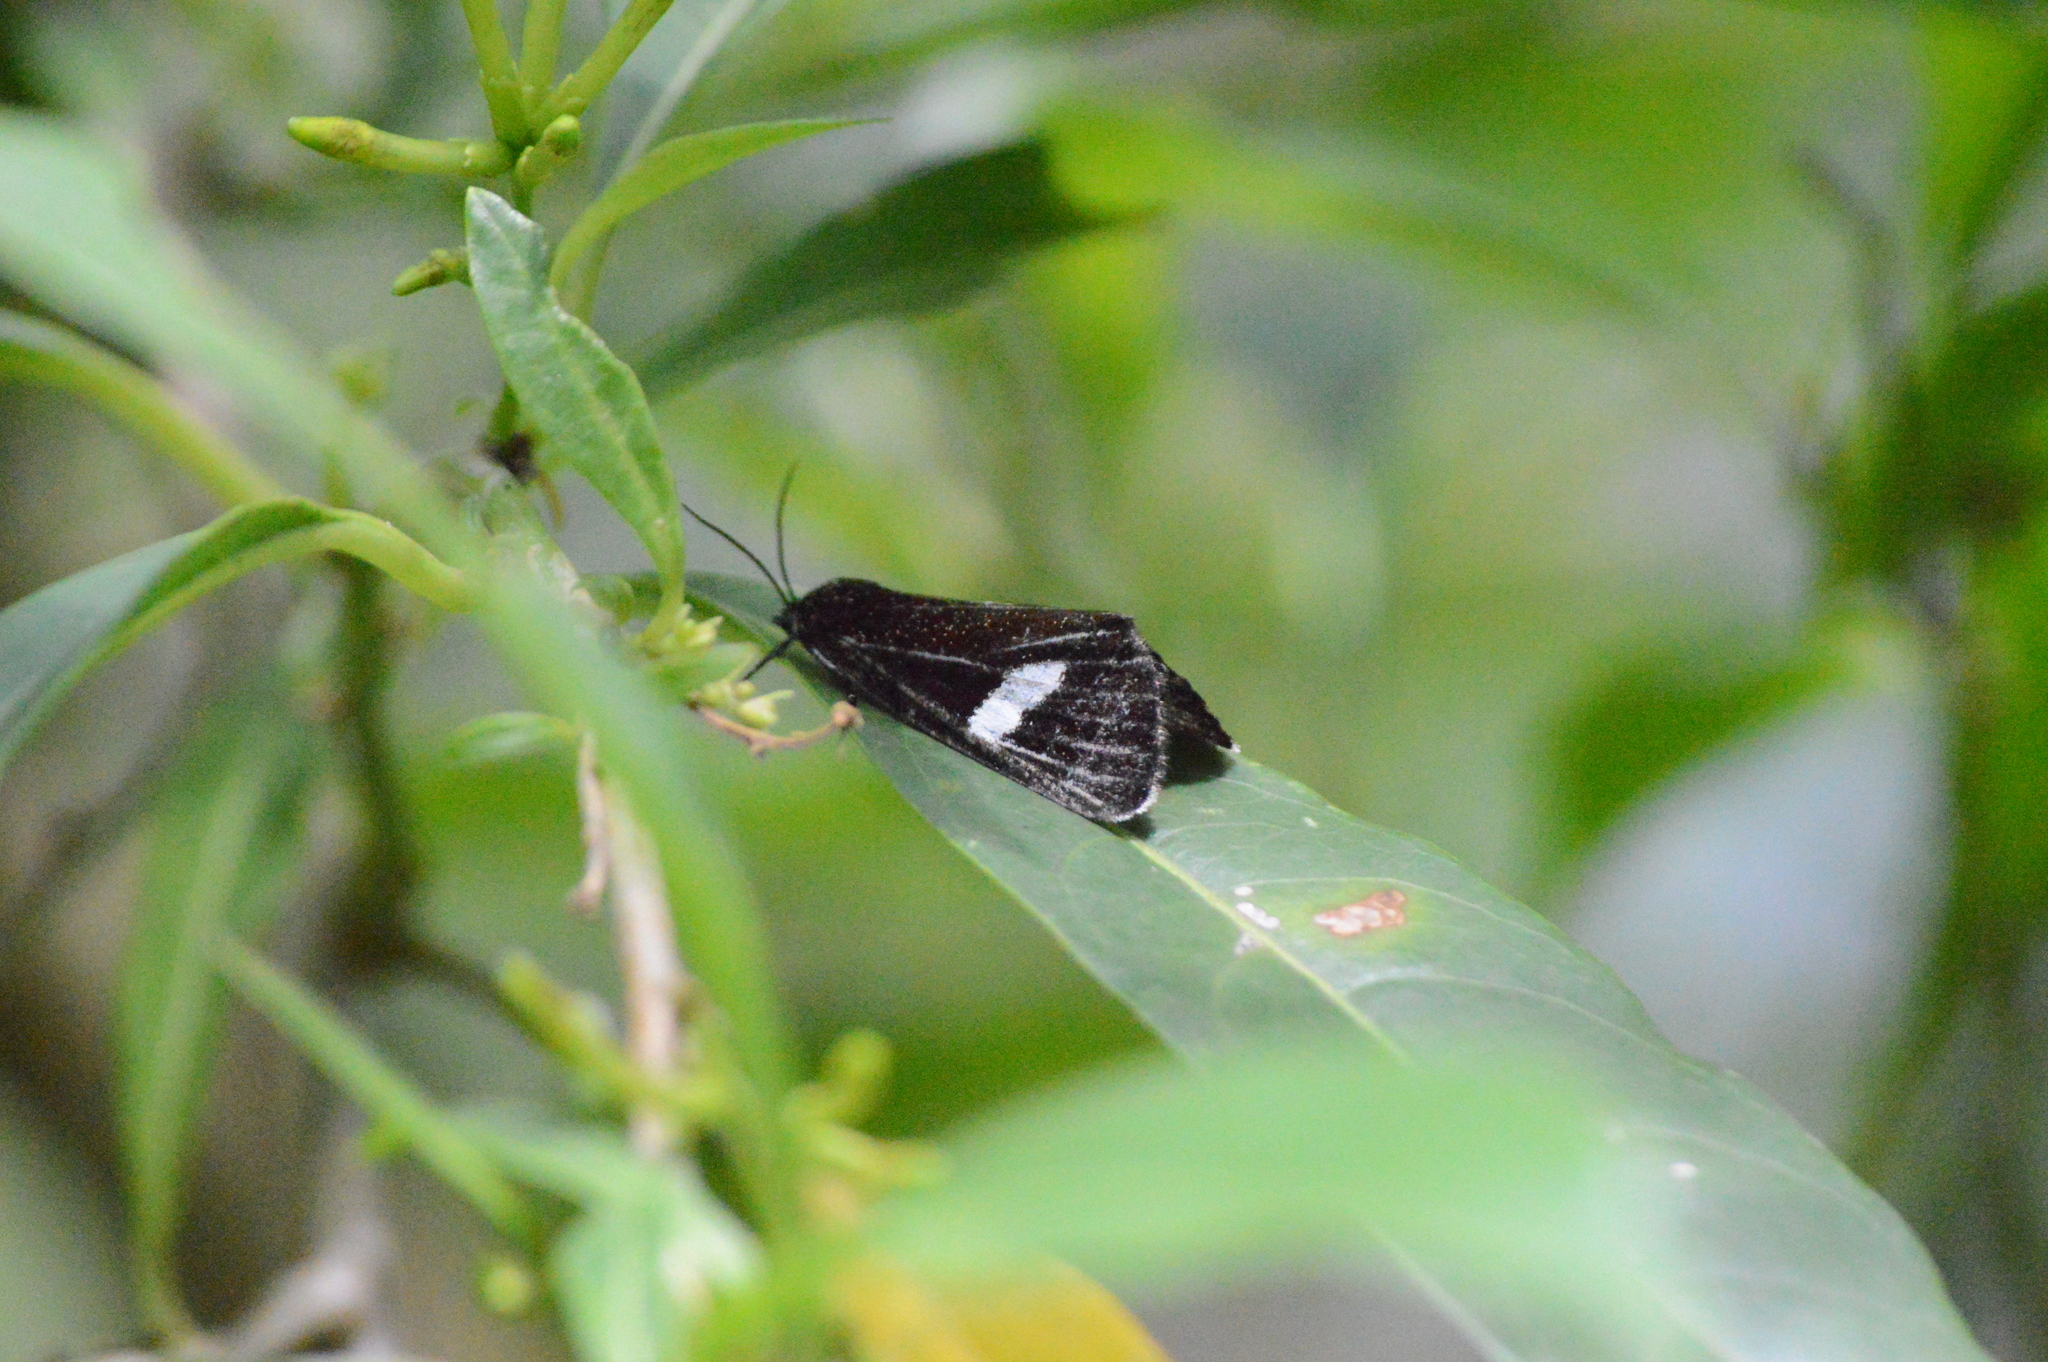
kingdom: Animalia
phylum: Arthropoda
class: Insecta
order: Lepidoptera
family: Noctuidae
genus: Rhosus
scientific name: Rhosus ovata
